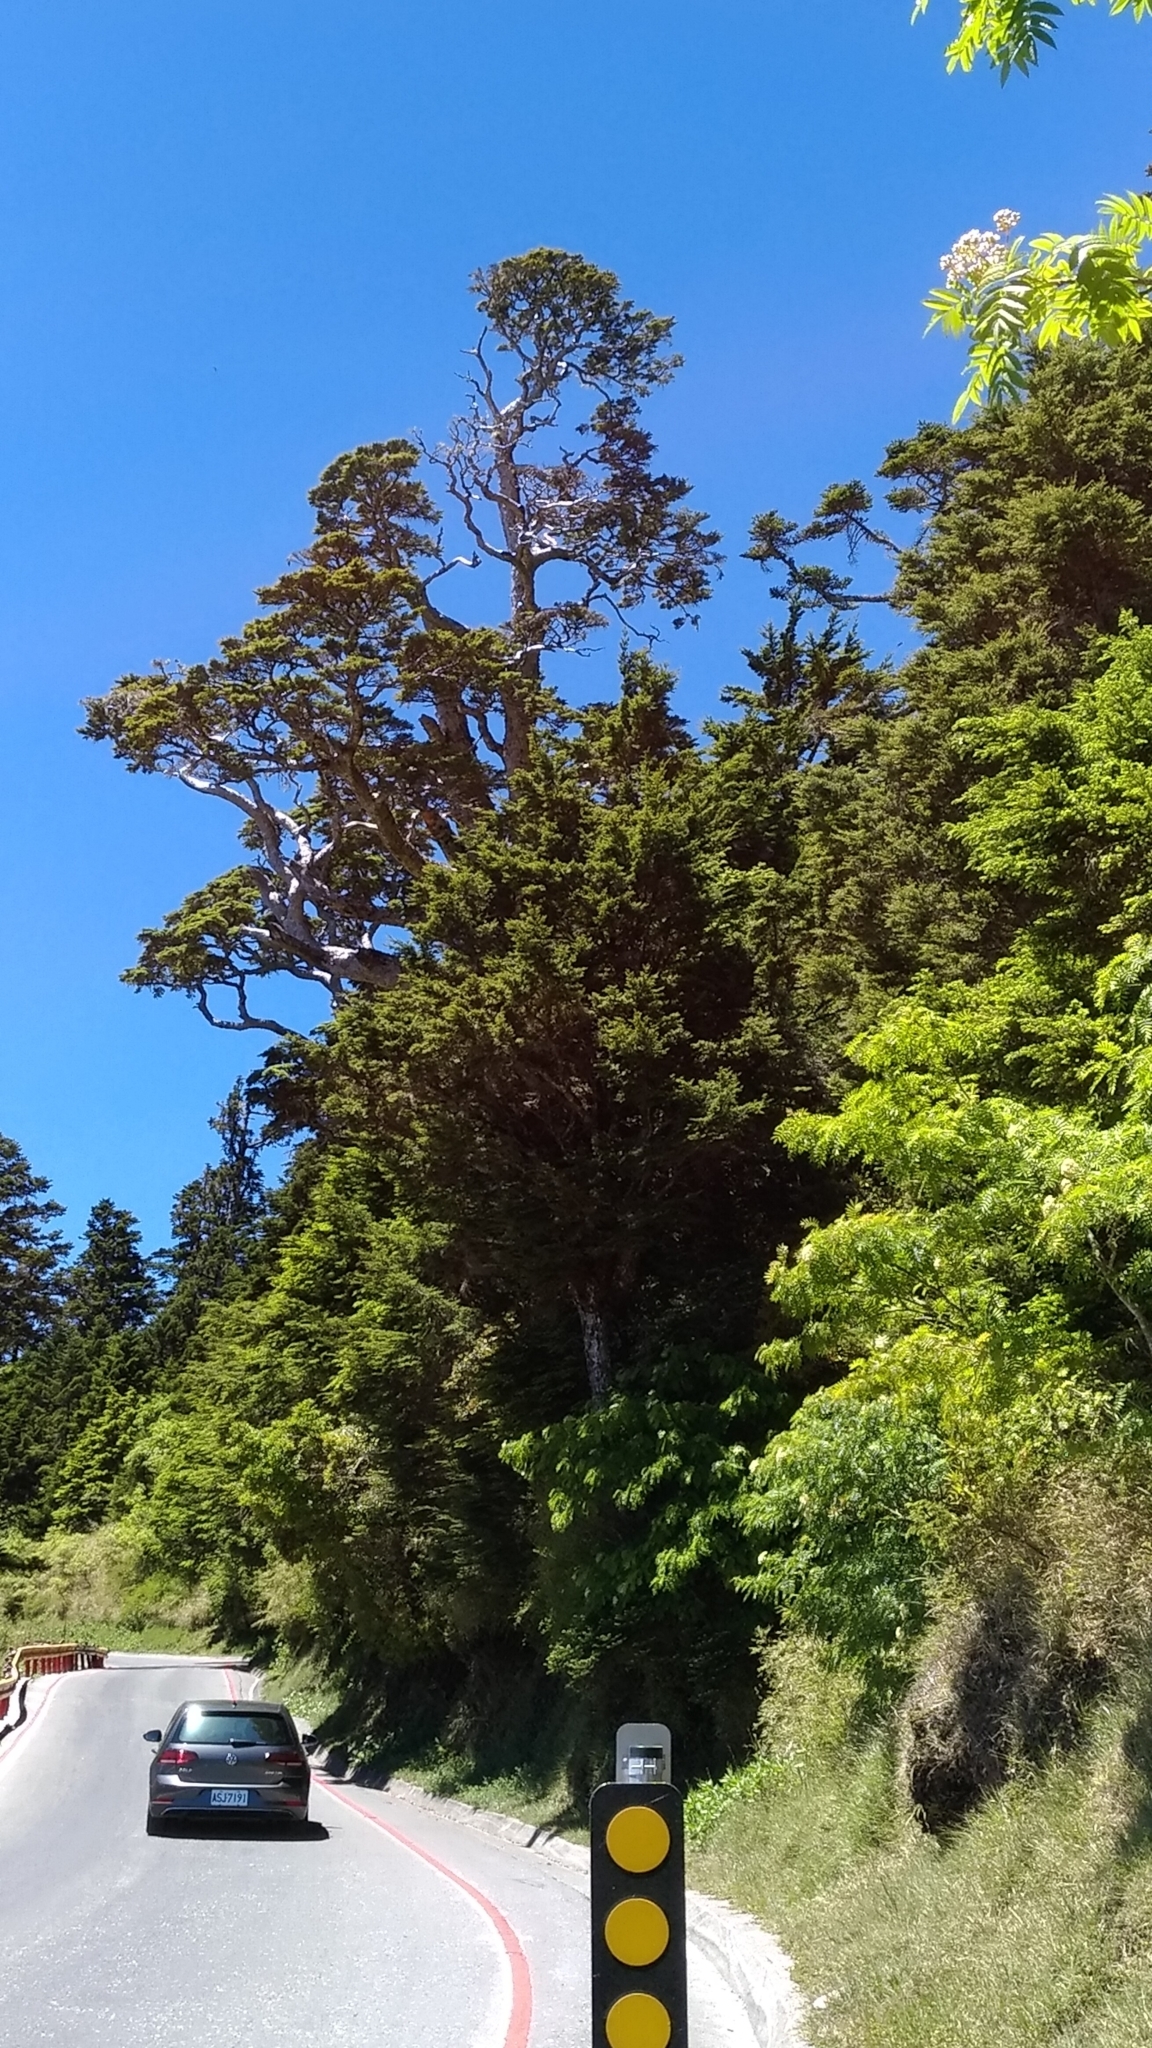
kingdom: Plantae
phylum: Tracheophyta
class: Pinopsida
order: Pinales
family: Pinaceae
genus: Tsuga
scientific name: Tsuga chinensis
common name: Chinese hemlock
